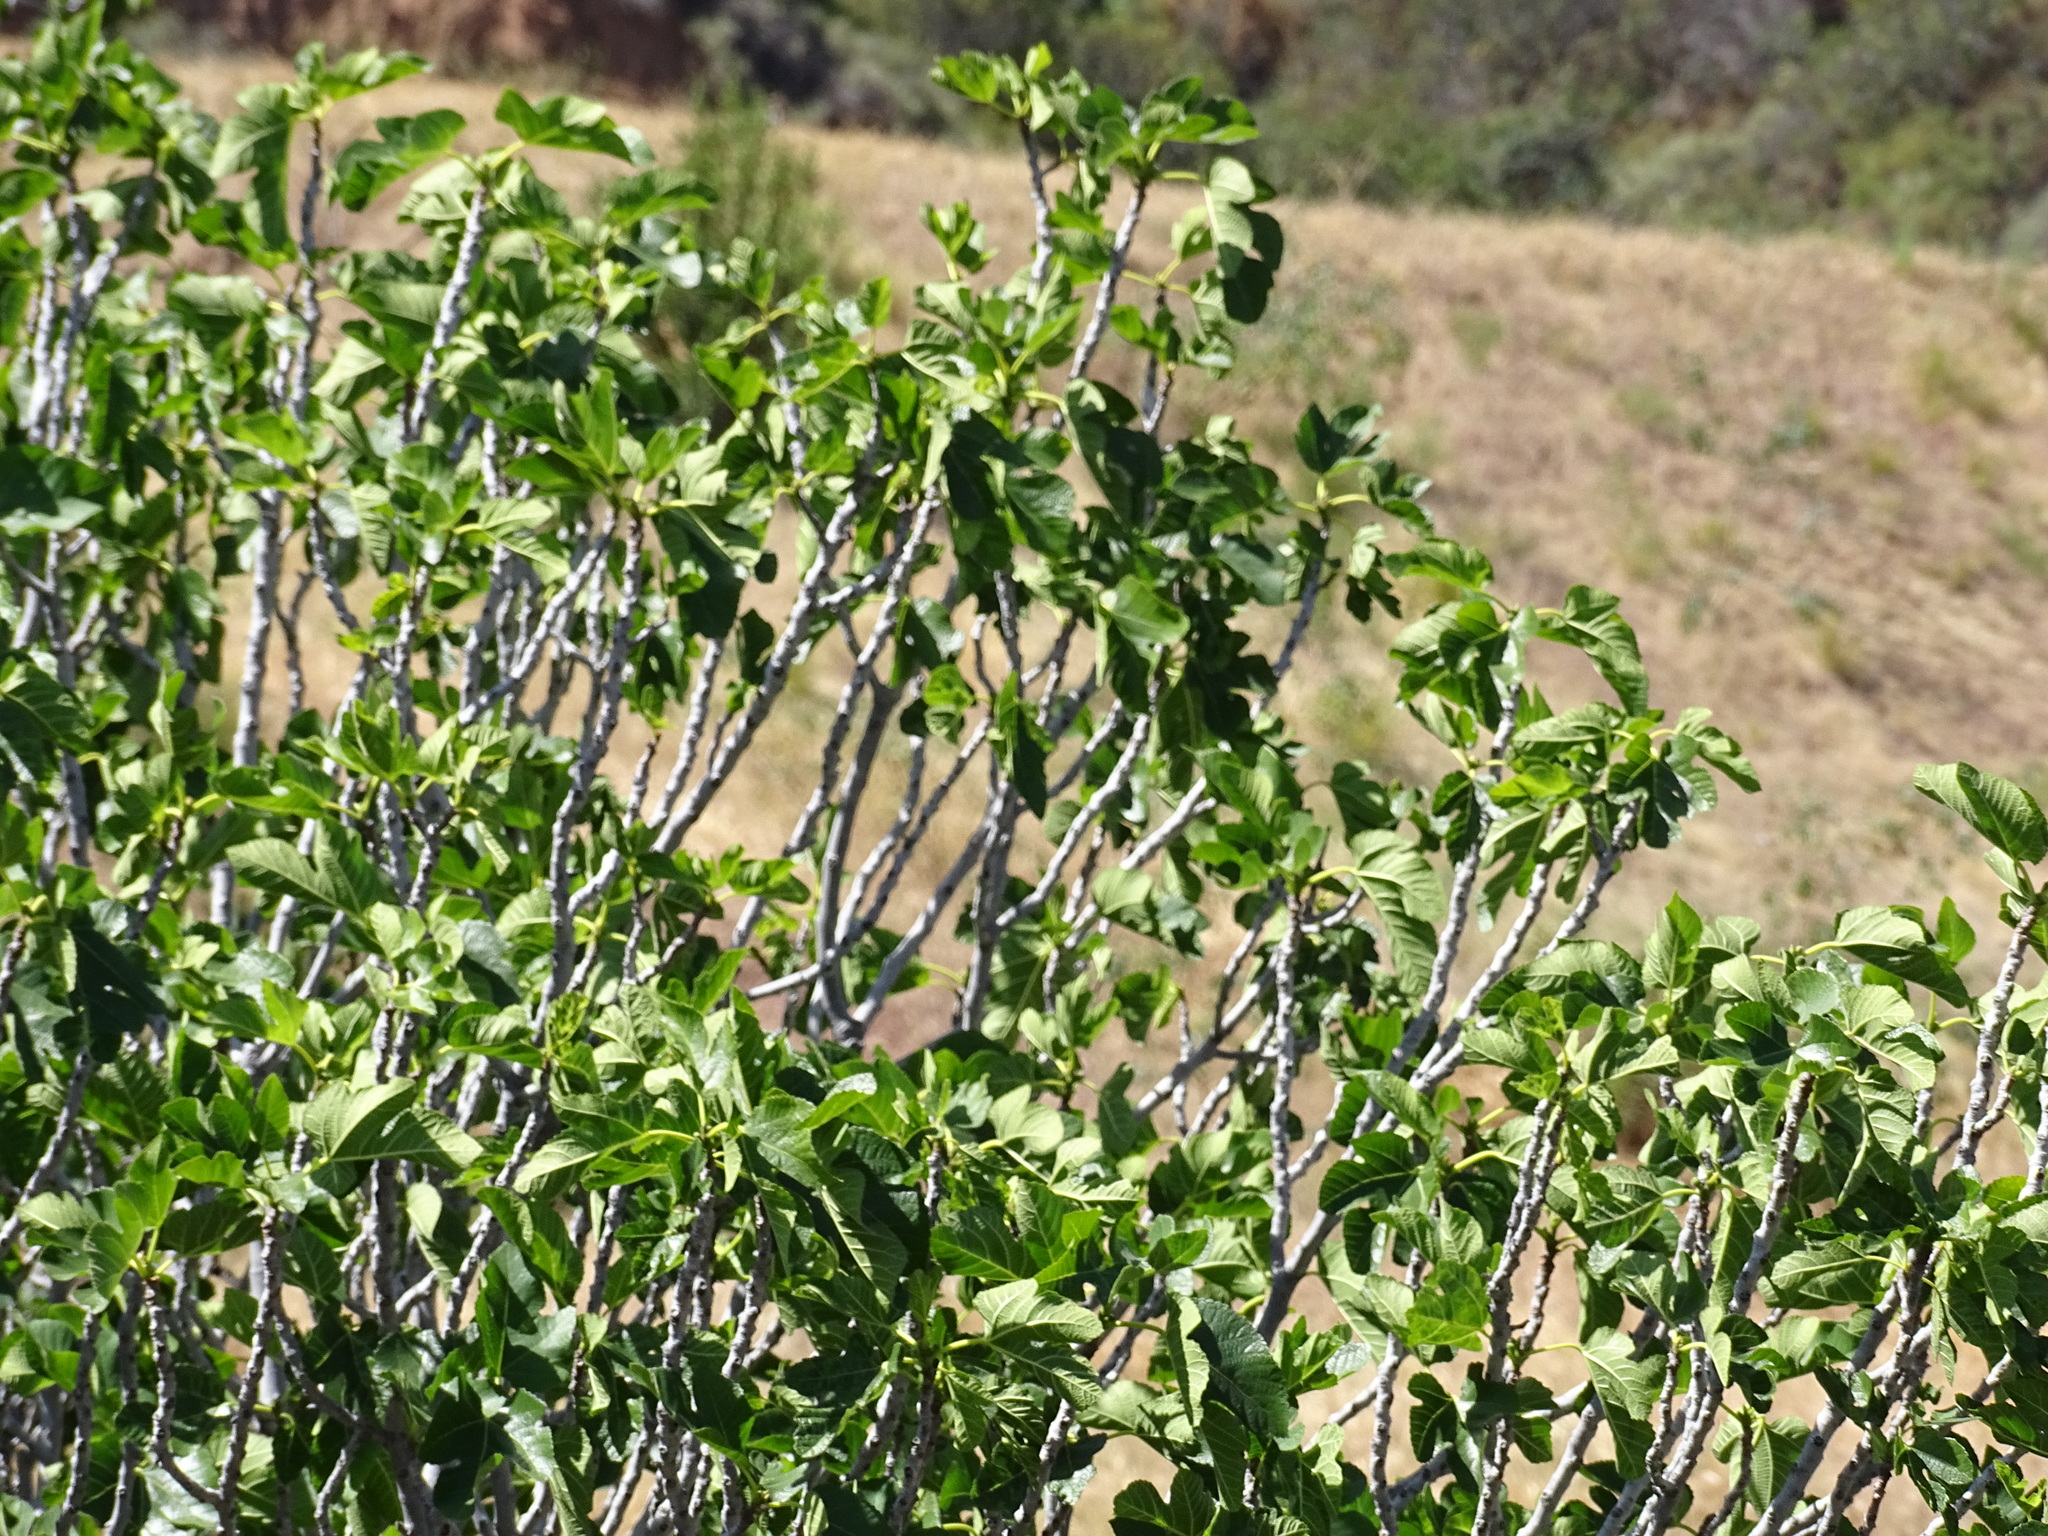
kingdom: Plantae
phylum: Tracheophyta
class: Magnoliopsida
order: Rosales
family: Moraceae
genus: Ficus
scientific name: Ficus carica
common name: Fig
